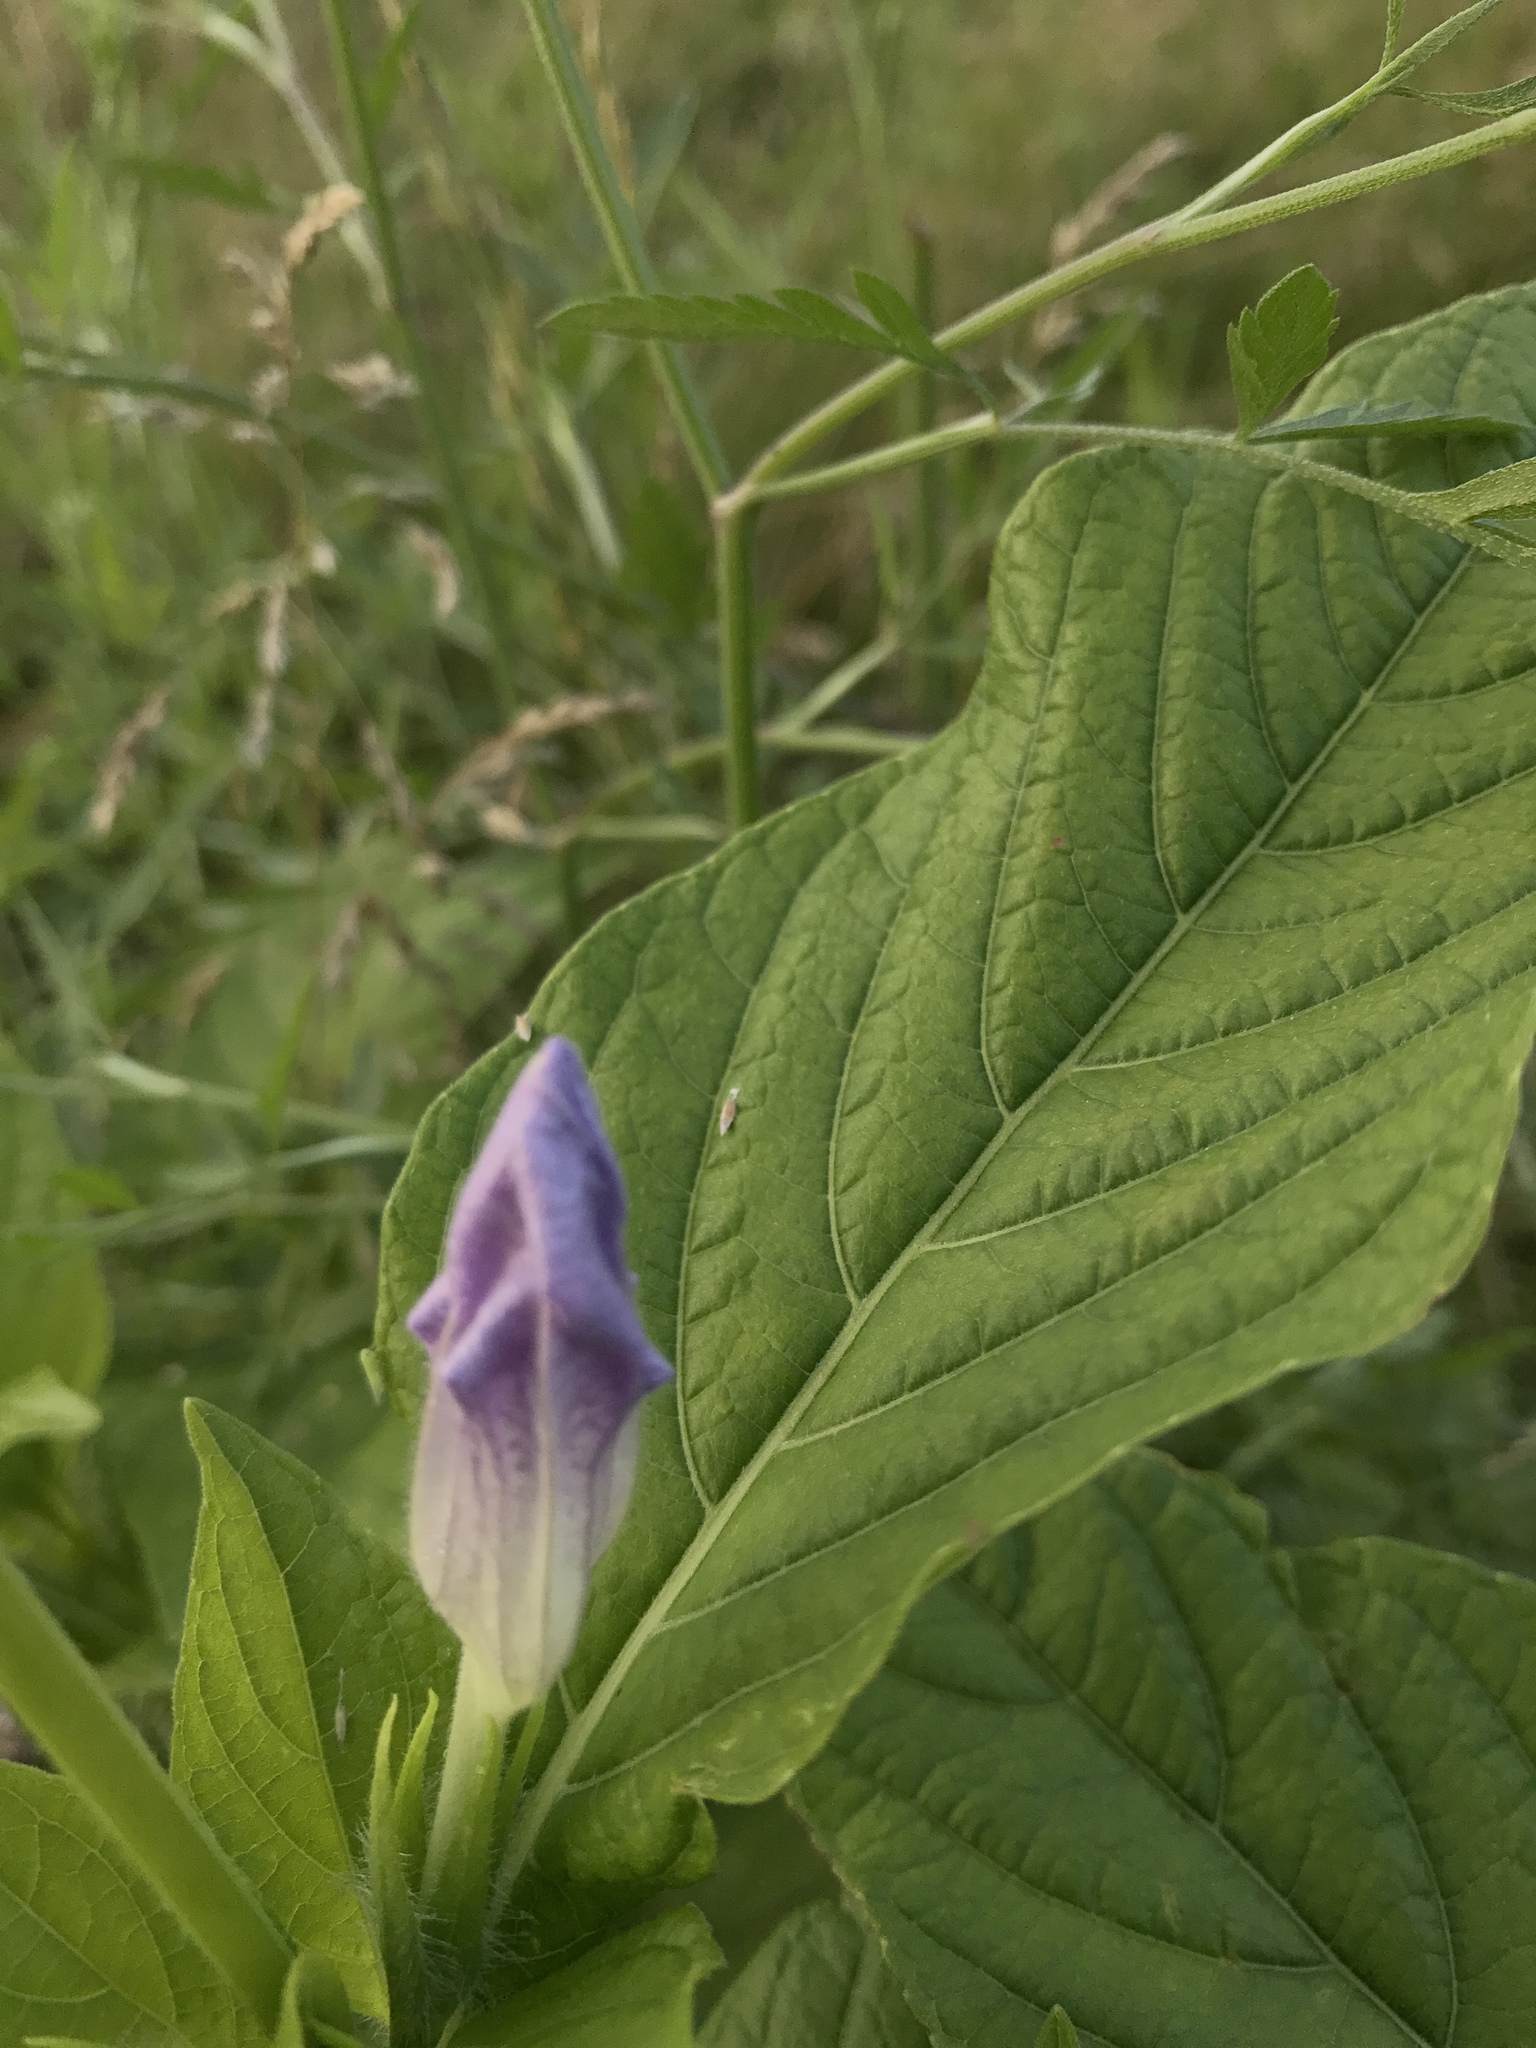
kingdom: Plantae
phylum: Tracheophyta
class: Magnoliopsida
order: Lamiales
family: Acanthaceae
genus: Ruellia
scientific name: Ruellia strepens
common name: Limestone wild petunia
